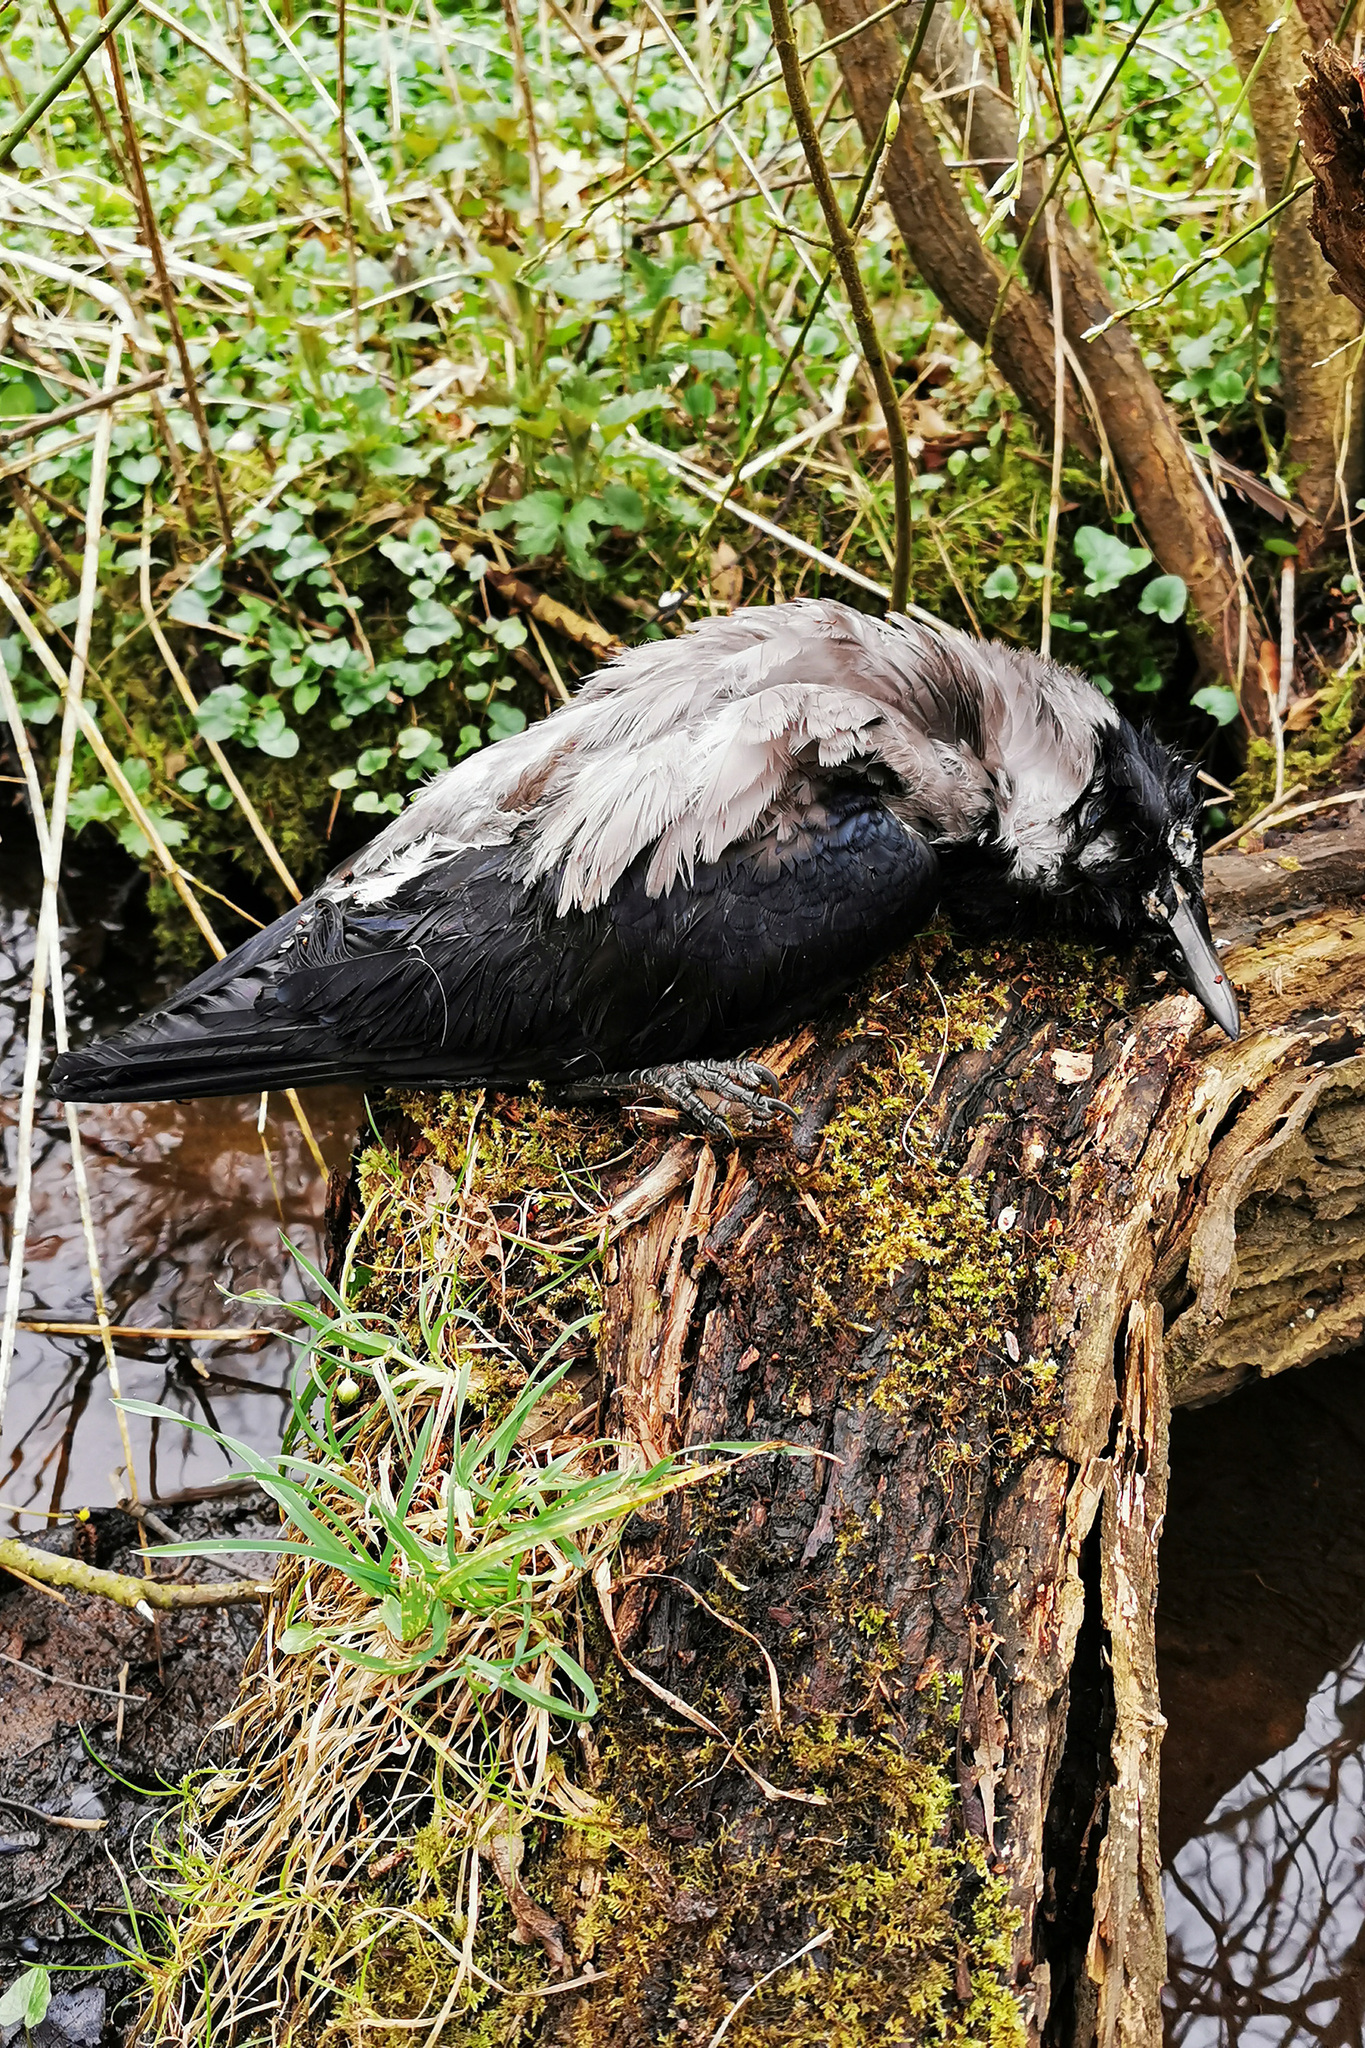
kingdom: Animalia
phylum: Chordata
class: Aves
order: Passeriformes
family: Corvidae
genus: Corvus
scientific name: Corvus cornix
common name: Hooded crow
